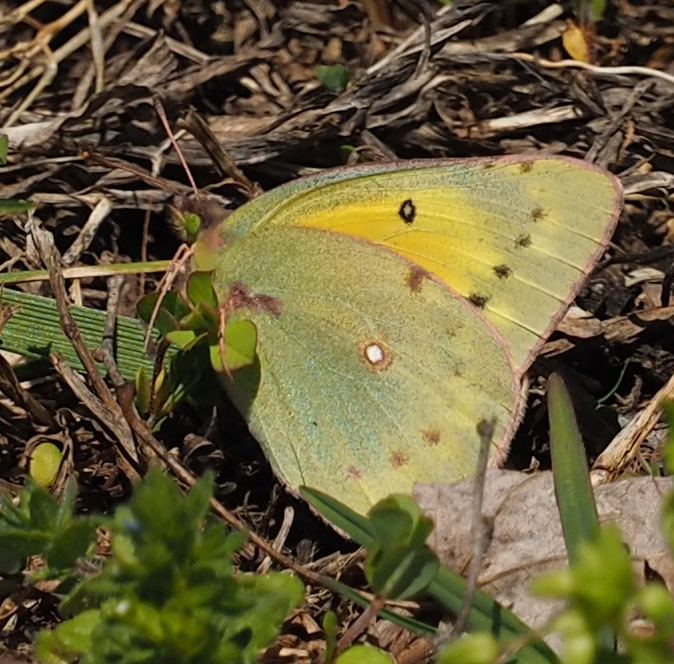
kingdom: Animalia
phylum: Arthropoda
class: Insecta
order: Lepidoptera
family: Pieridae
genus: Colias
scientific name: Colias eurytheme
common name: Alfalfa butterfly
